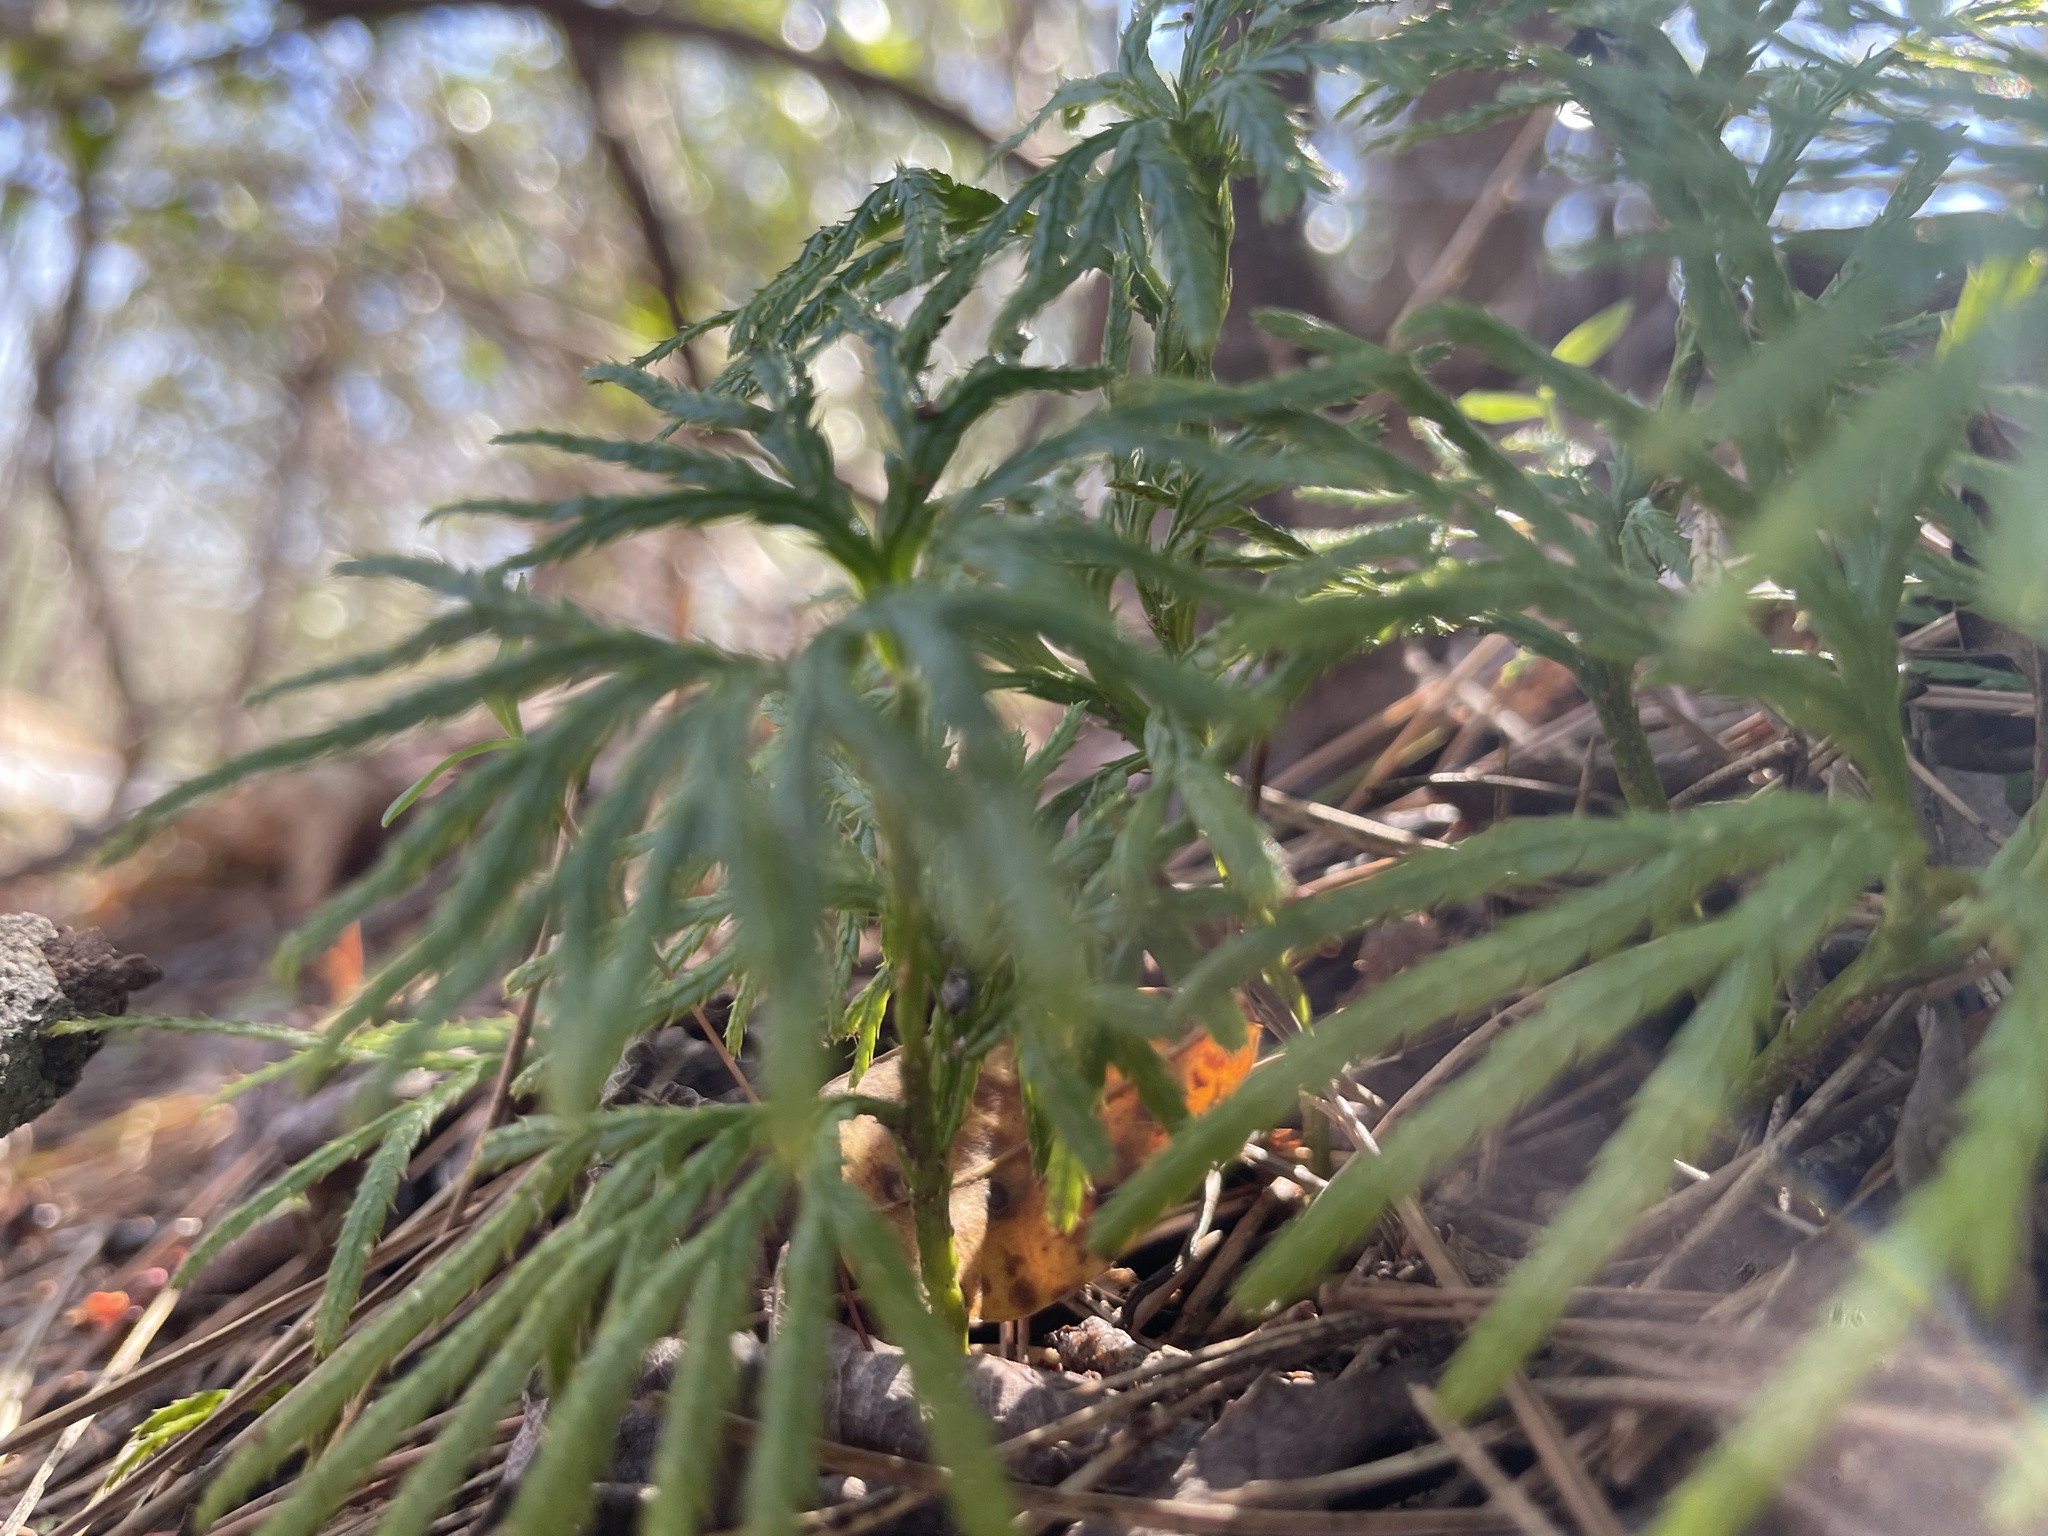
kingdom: Plantae
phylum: Tracheophyta
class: Lycopodiopsida
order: Lycopodiales
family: Lycopodiaceae
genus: Diphasiastrum
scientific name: Diphasiastrum digitatum
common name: Southern running-pine
